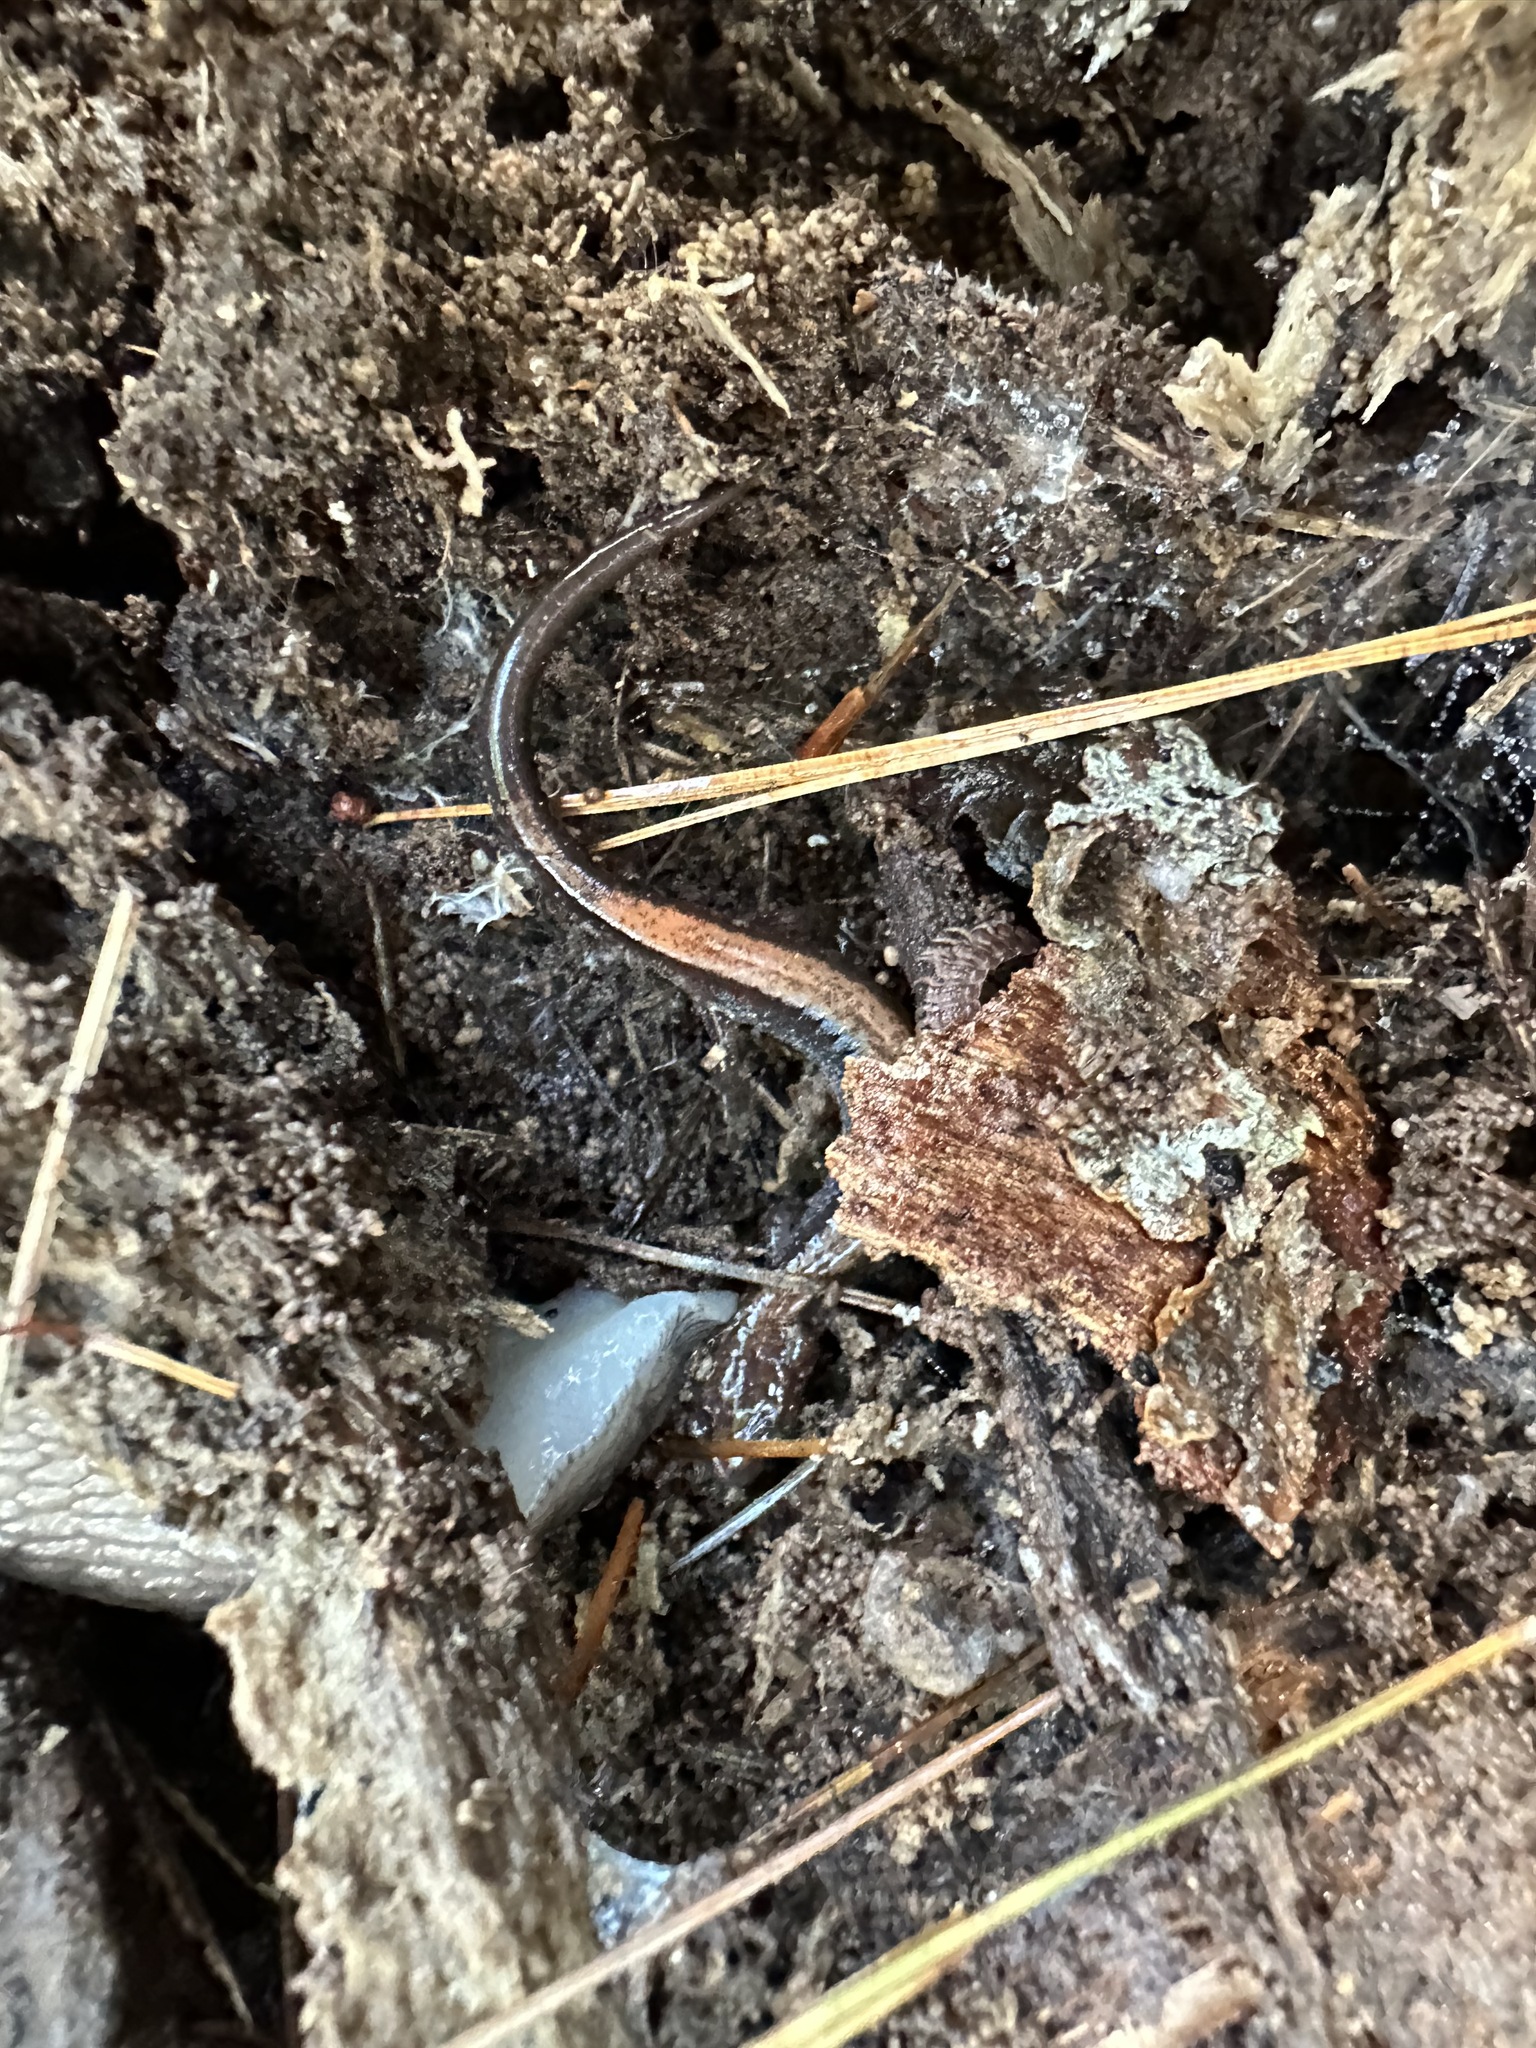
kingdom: Animalia
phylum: Chordata
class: Amphibia
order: Caudata
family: Plethodontidae
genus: Plethodon
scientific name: Plethodon cinereus
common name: Redback salamander
